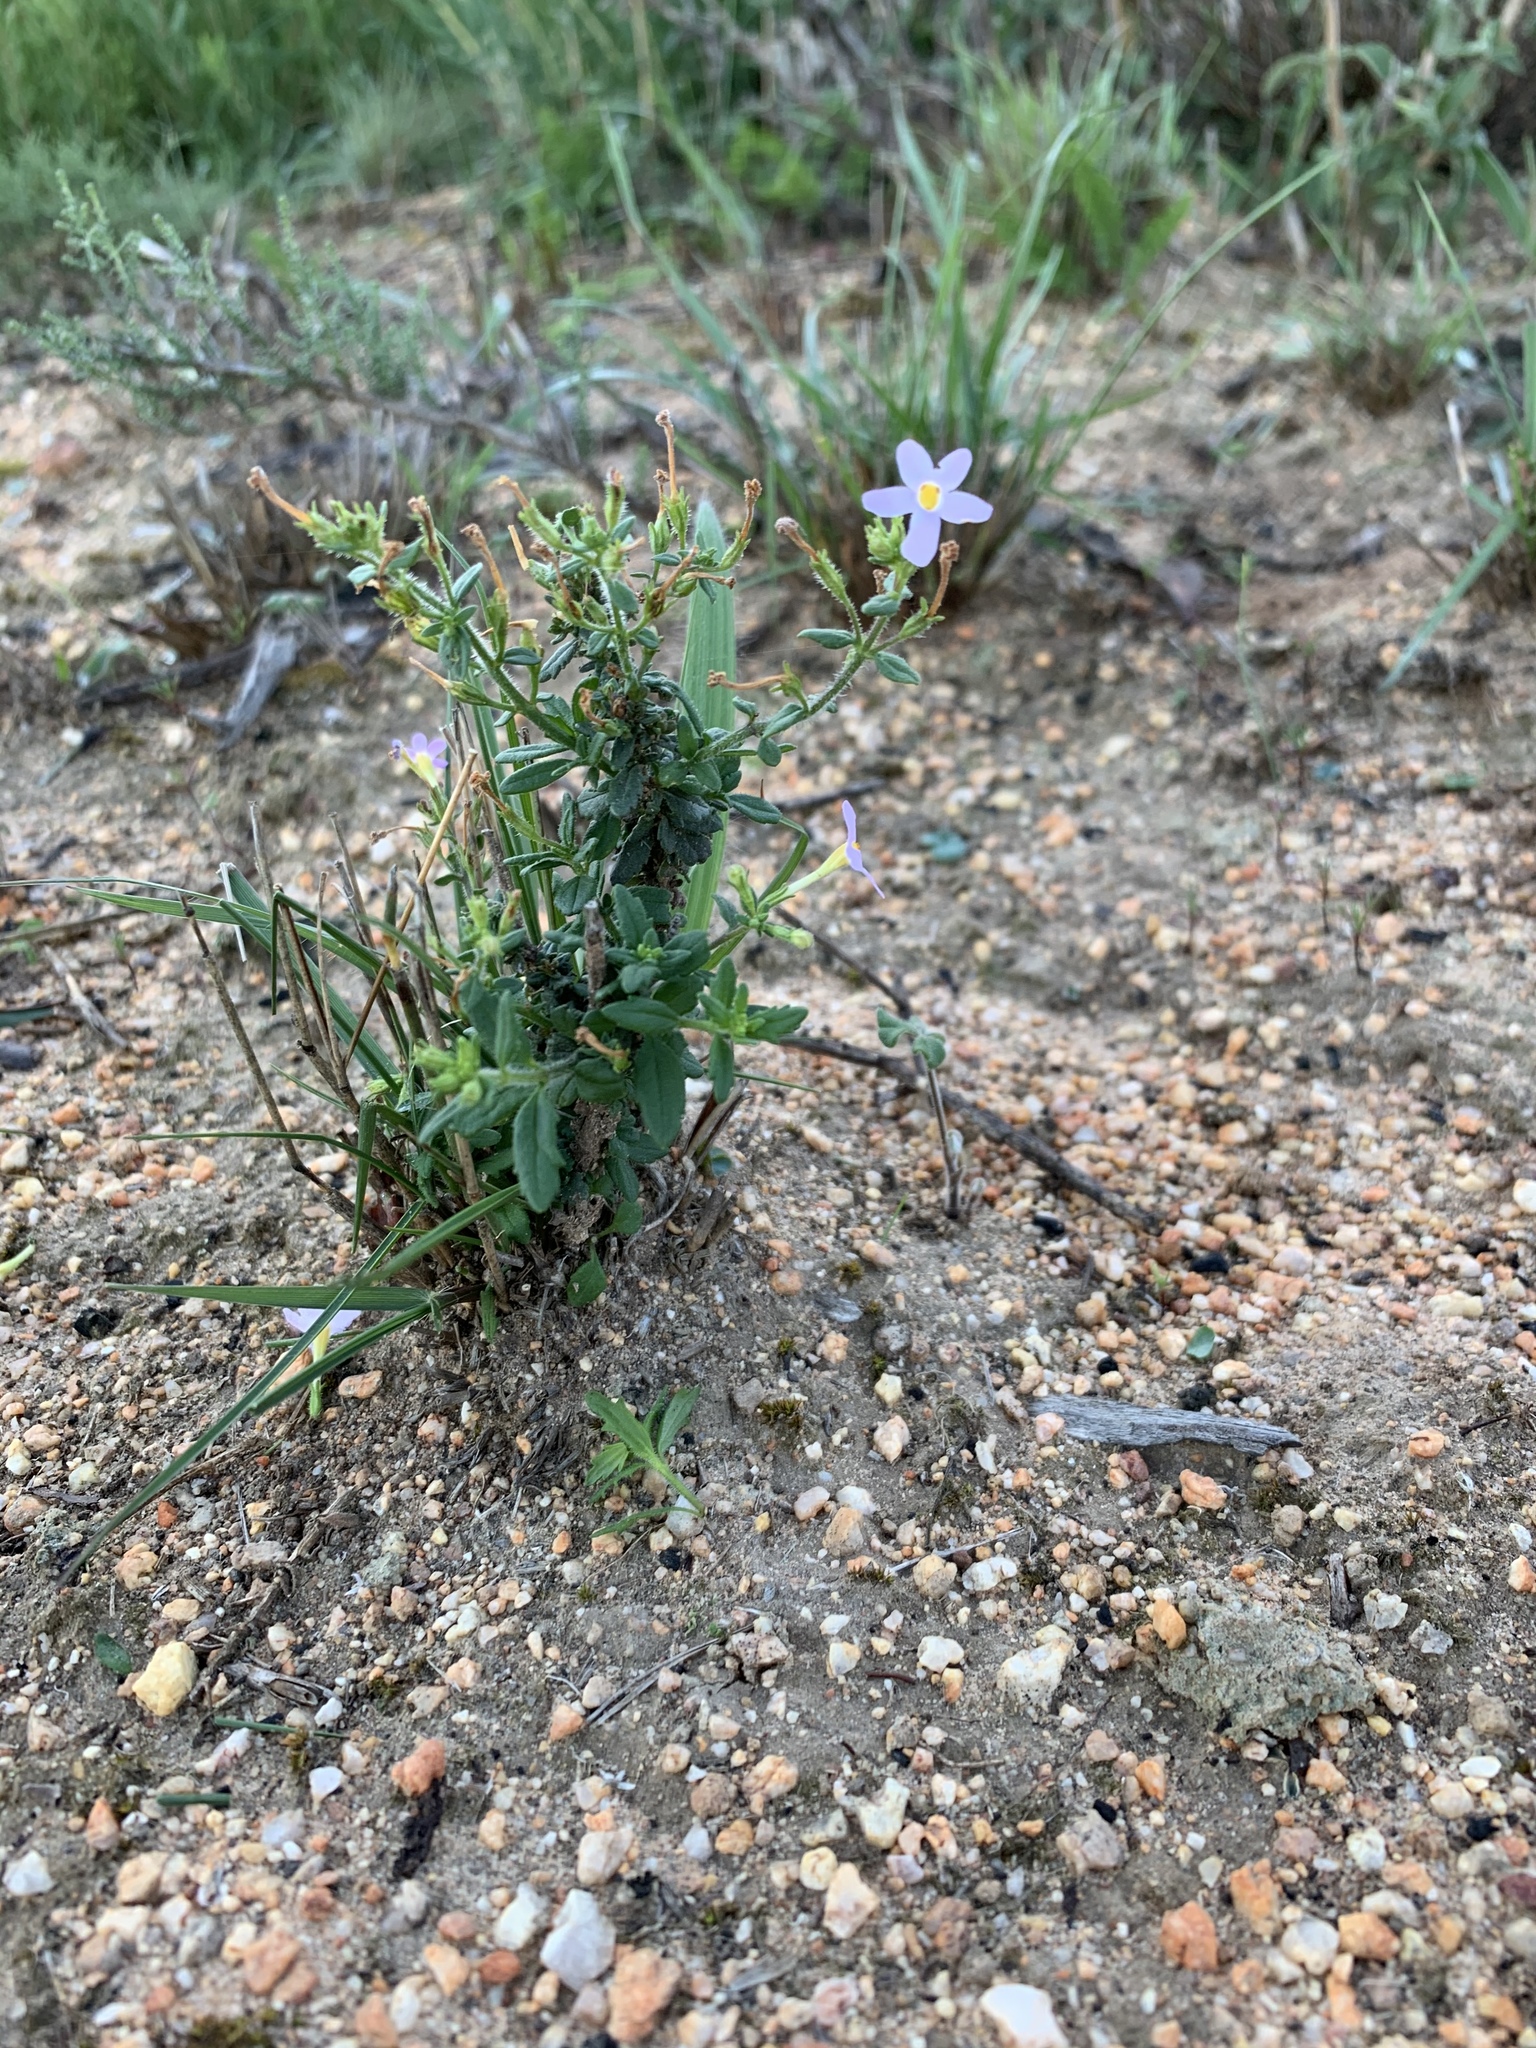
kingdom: Plantae
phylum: Tracheophyta
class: Magnoliopsida
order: Lamiales
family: Scrophulariaceae
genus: Chaenostoma
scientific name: Chaenostoma hispidum
